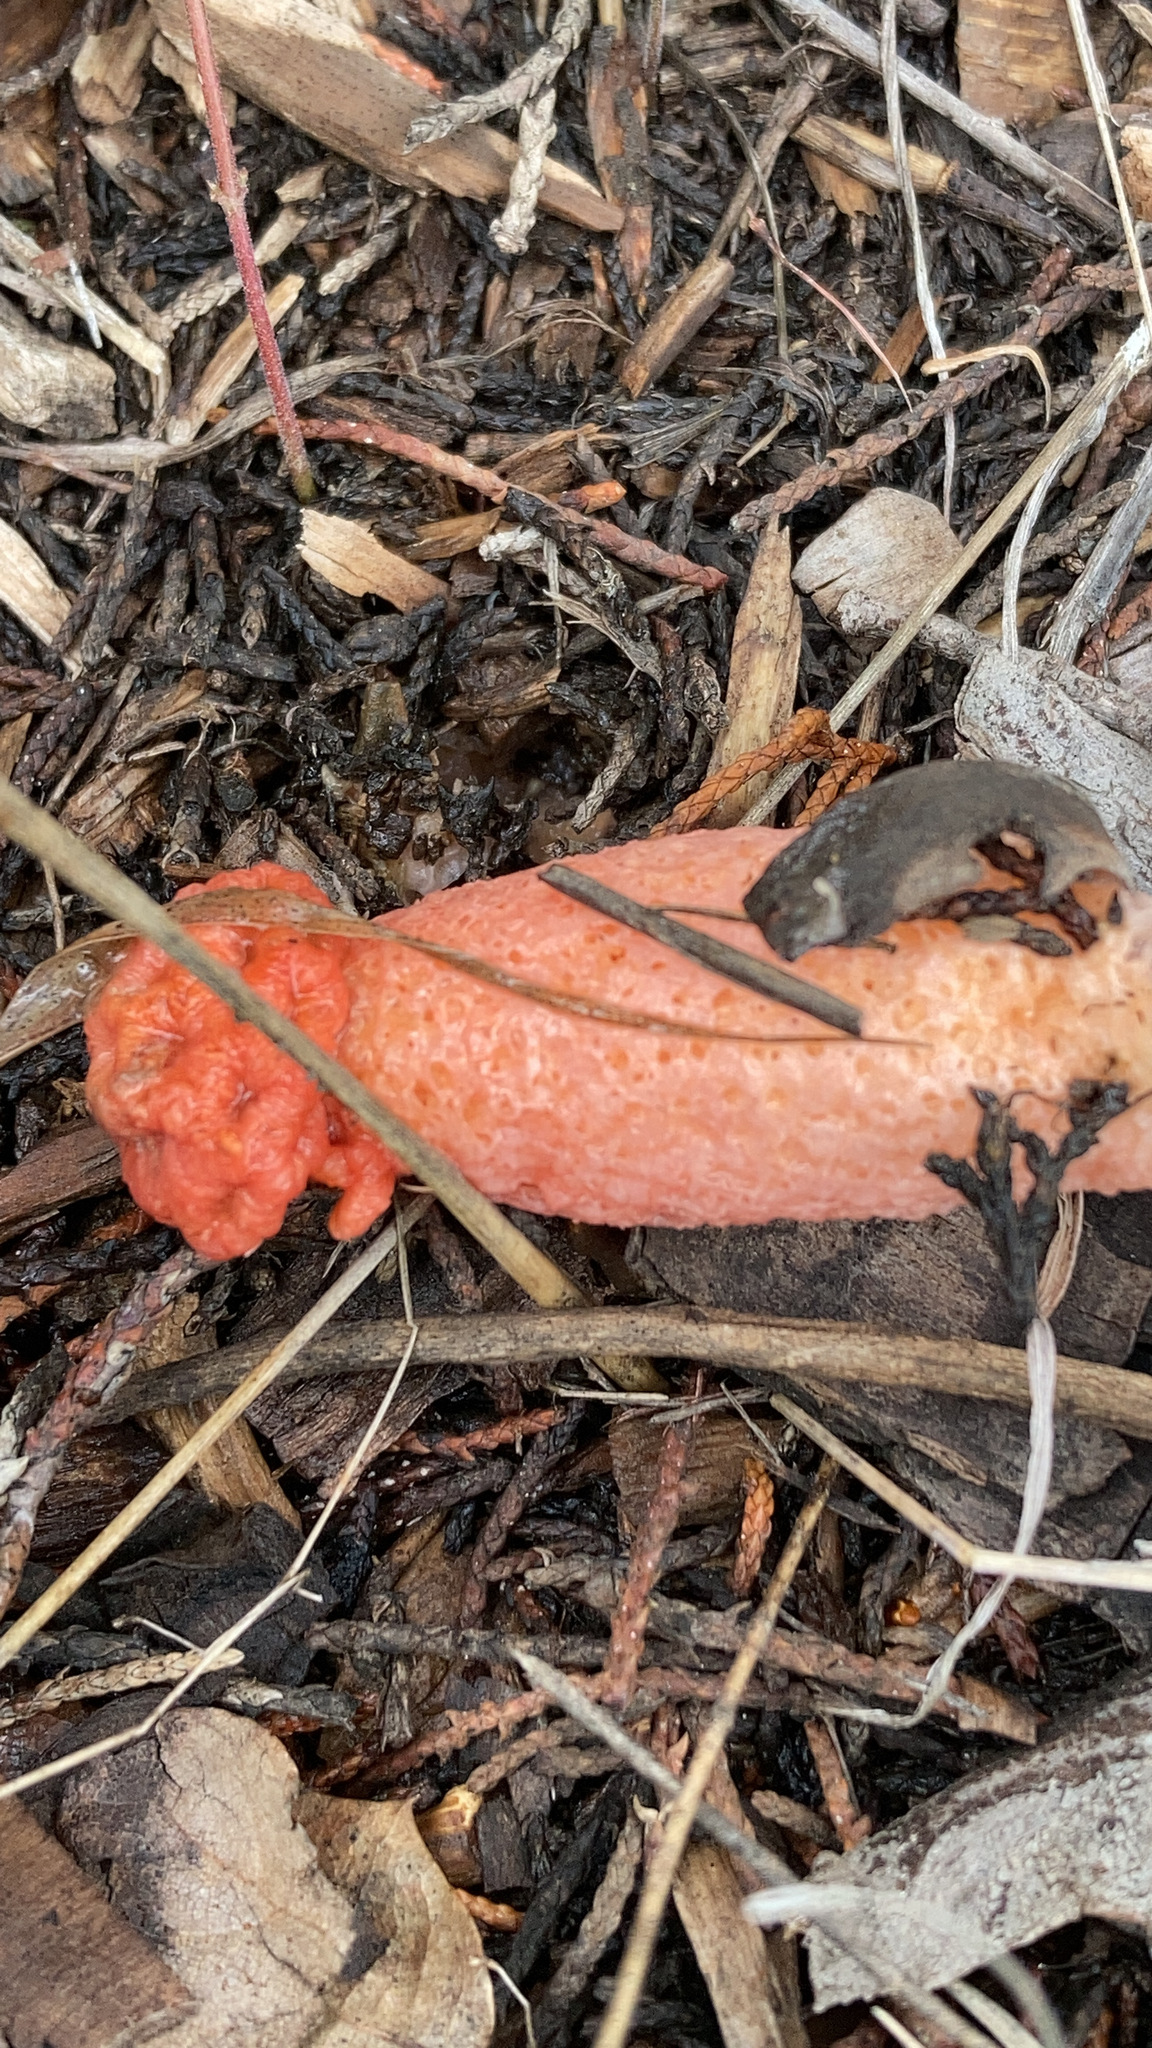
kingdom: Fungi
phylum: Basidiomycota
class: Agaricomycetes
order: Phallales
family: Phallaceae
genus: Lysurus
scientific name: Lysurus periphragmoides
